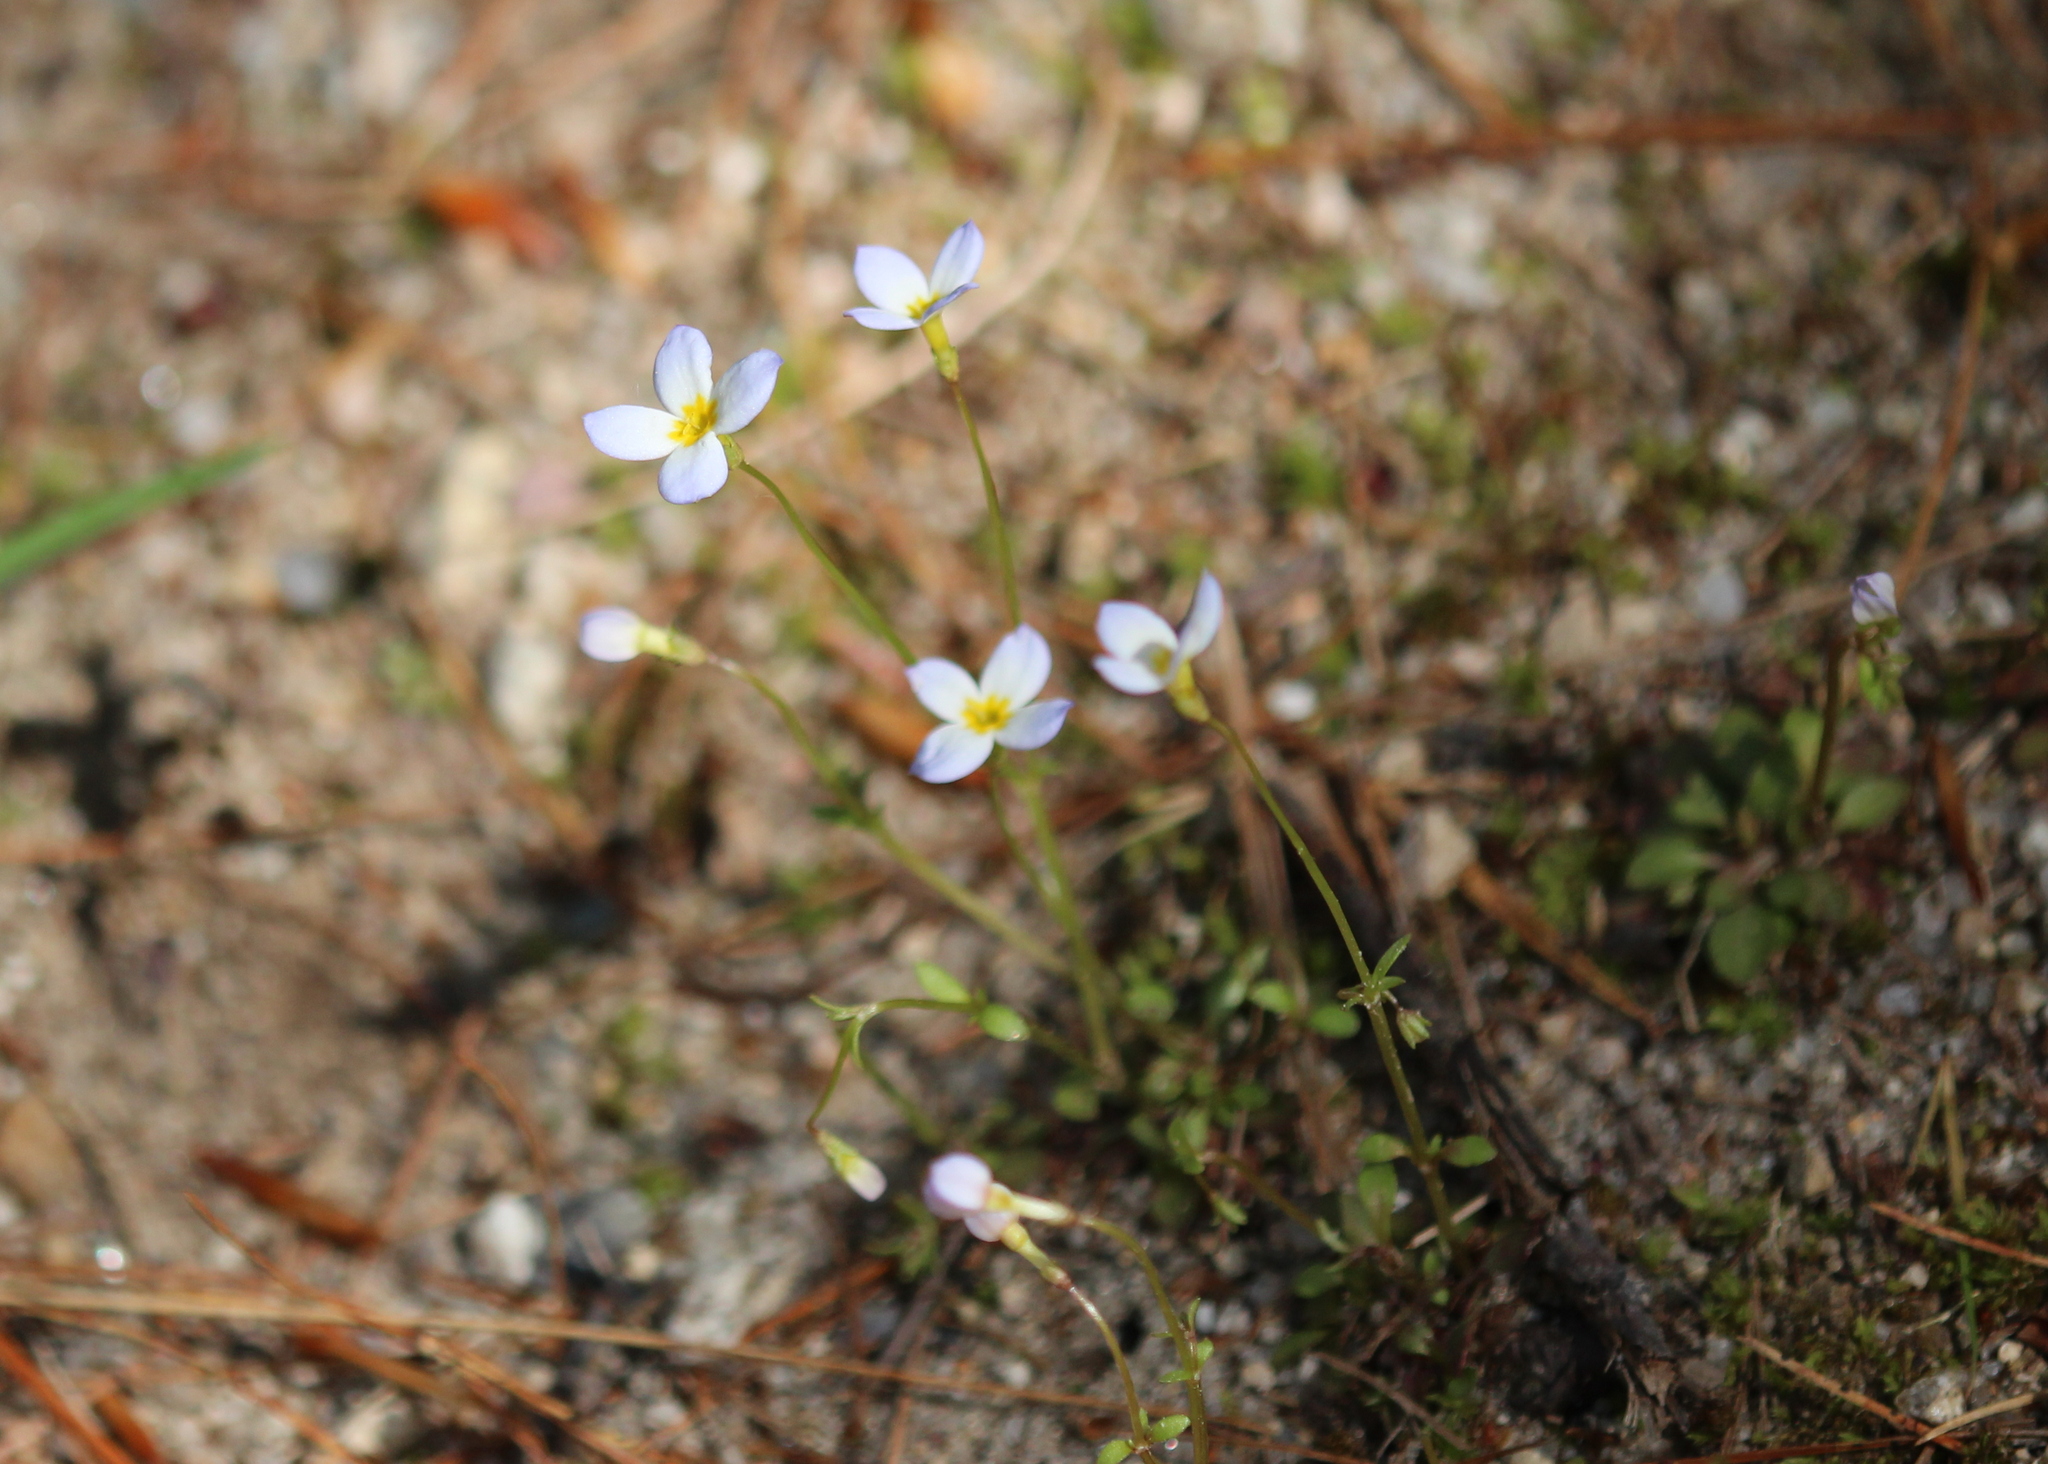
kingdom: Plantae
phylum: Tracheophyta
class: Magnoliopsida
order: Gentianales
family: Rubiaceae
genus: Houstonia
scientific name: Houstonia caerulea
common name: Bluets
